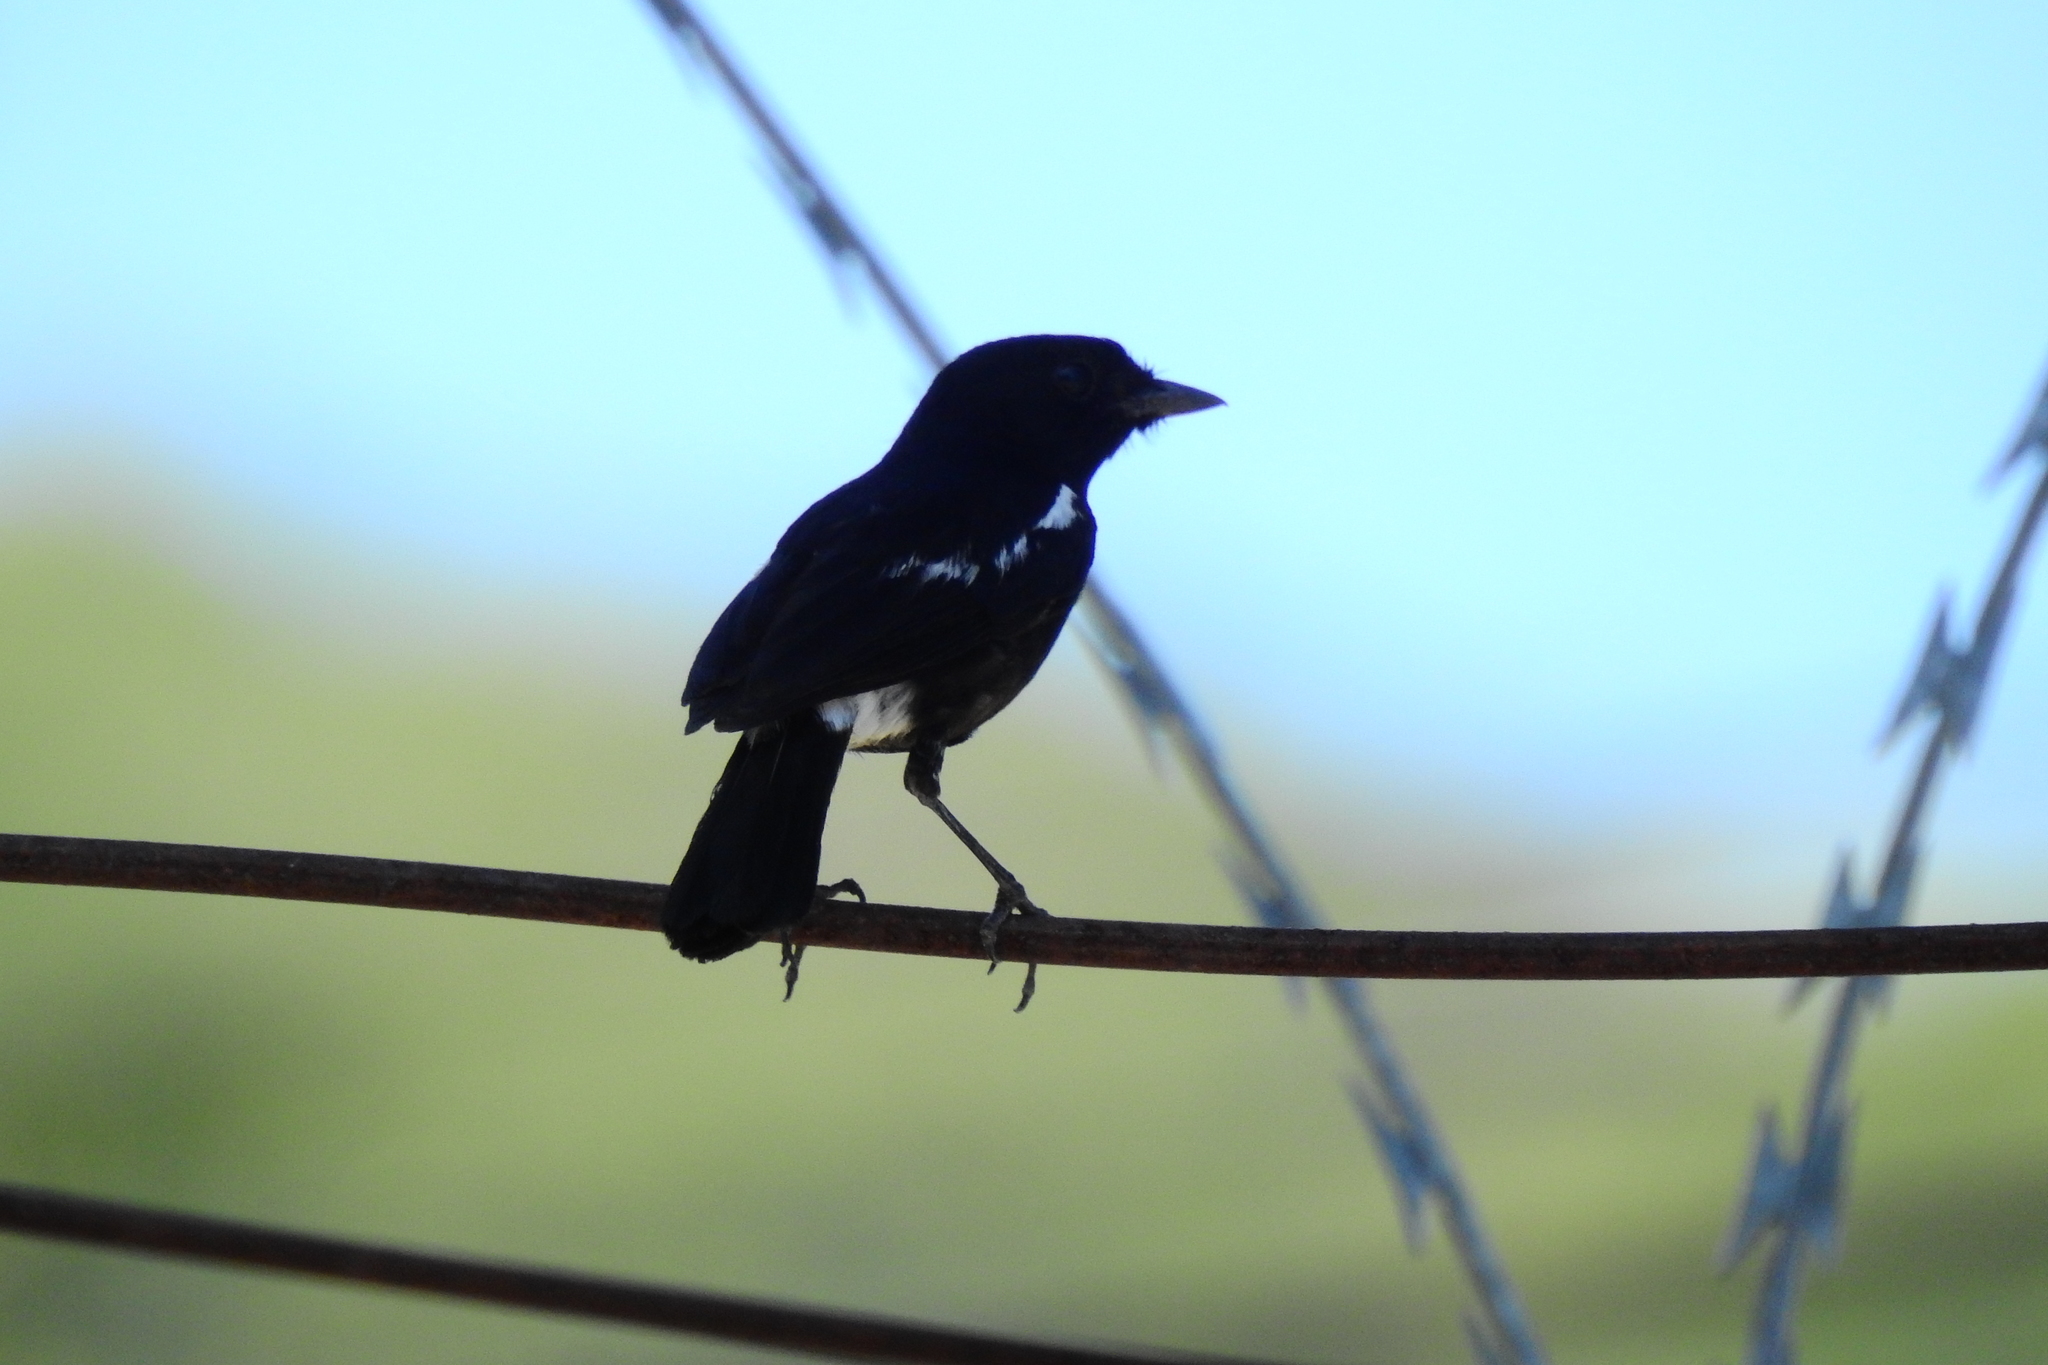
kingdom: Animalia
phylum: Chordata
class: Aves
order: Passeriformes
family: Muscicapidae
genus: Saxicola
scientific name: Saxicola caprata
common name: Pied bush chat
